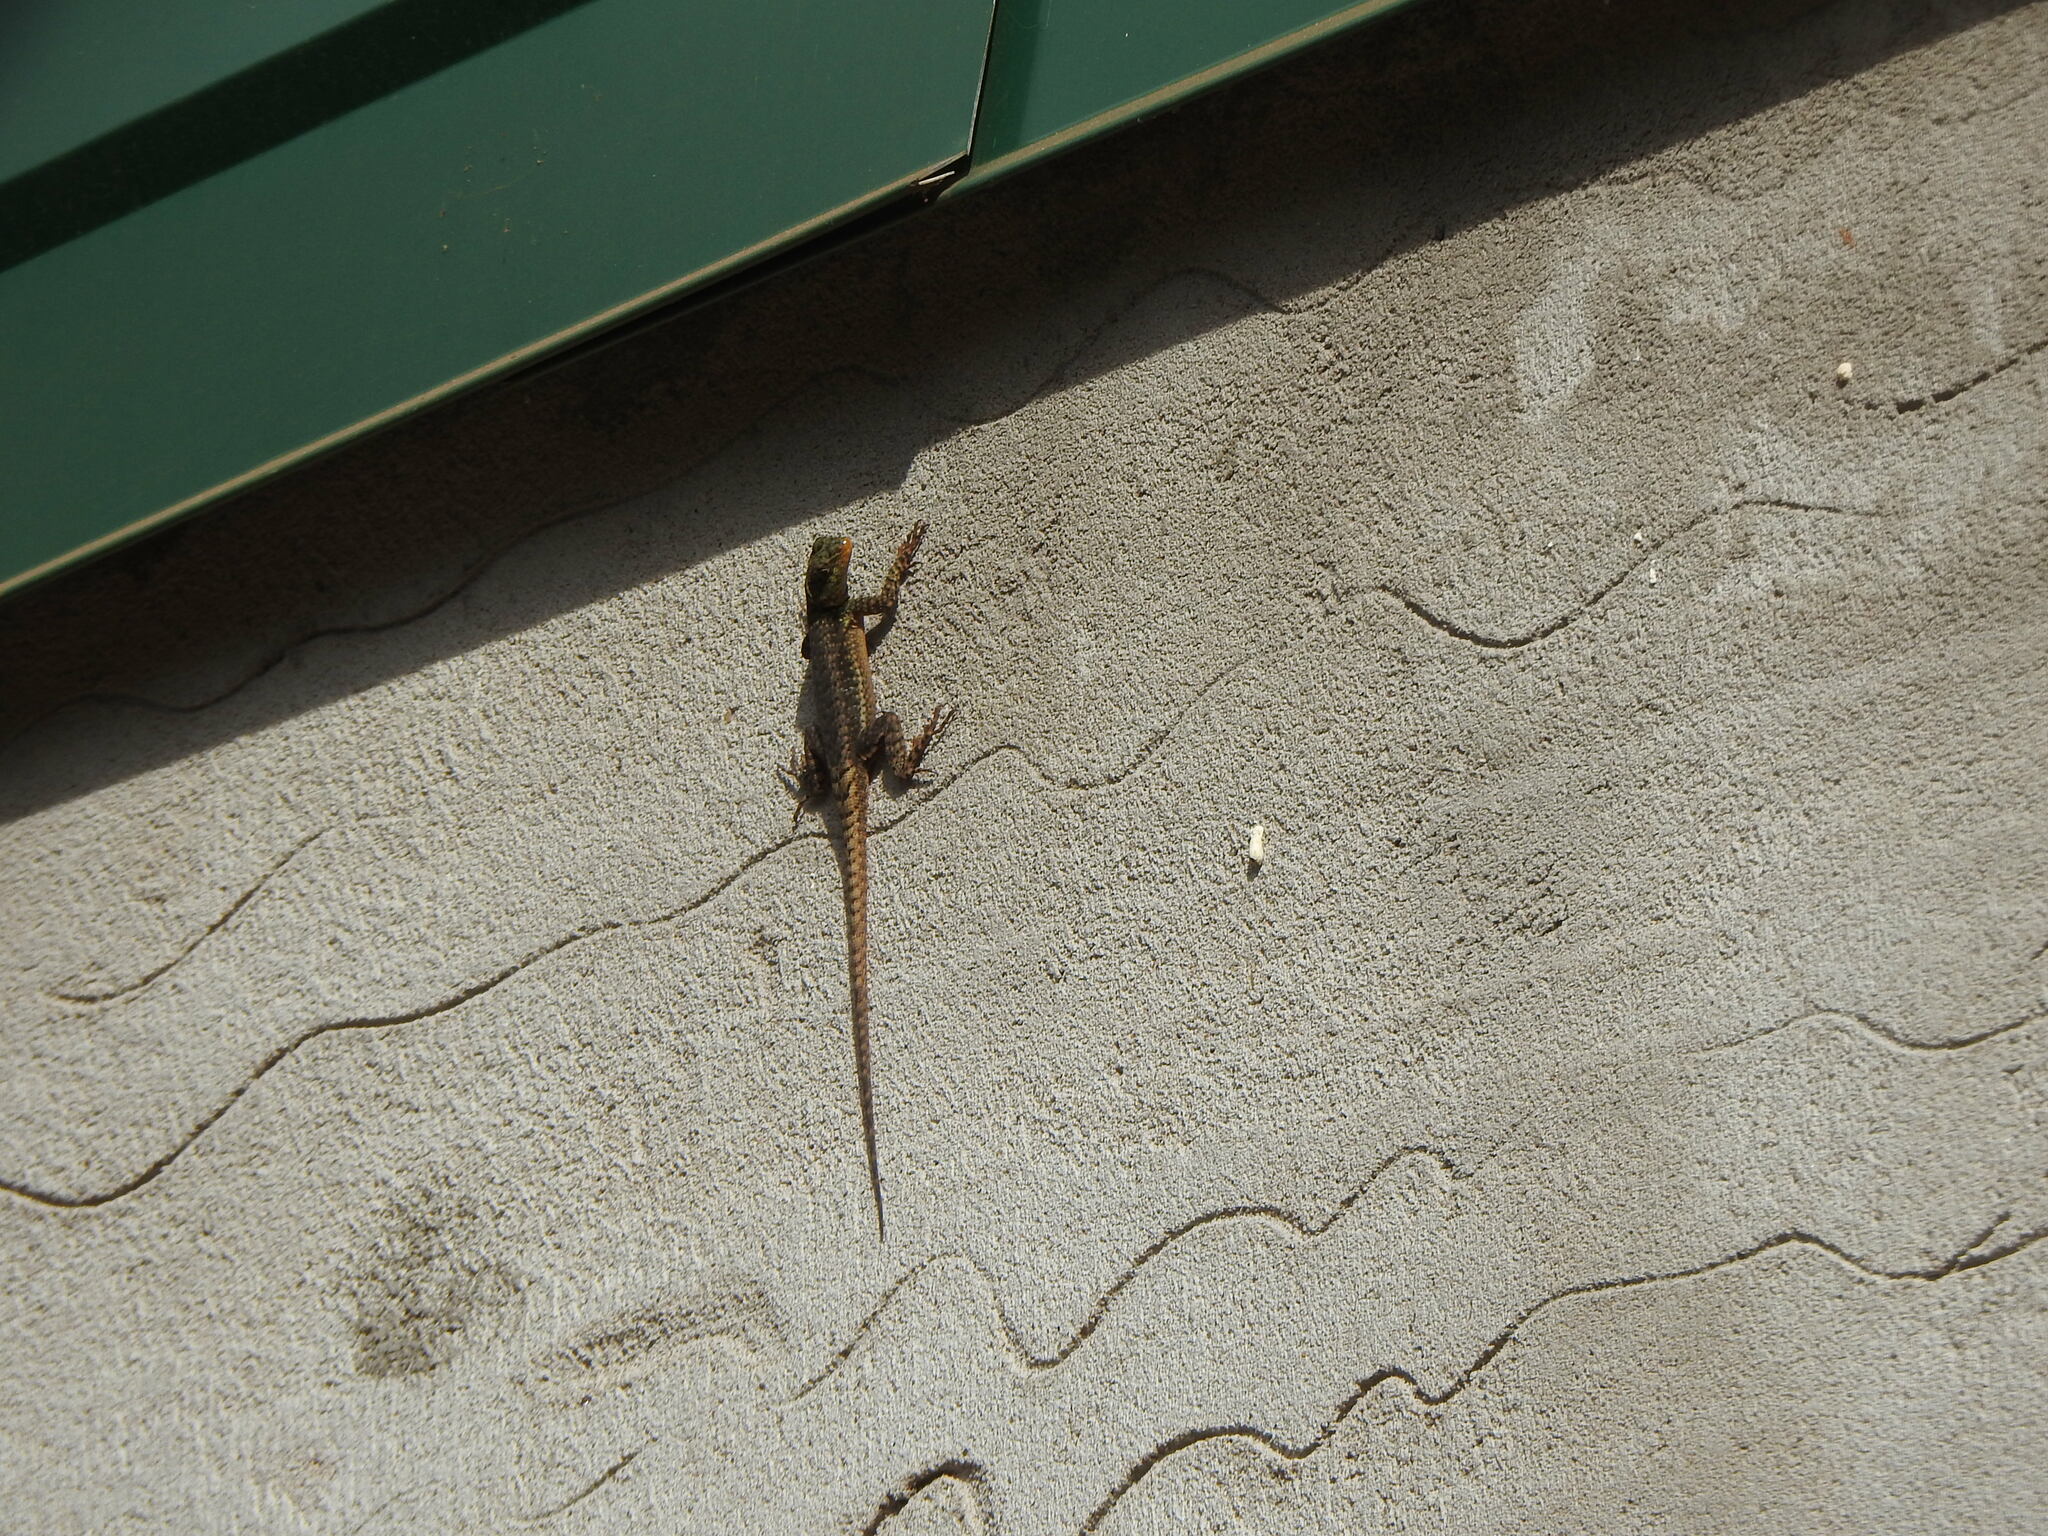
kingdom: Animalia
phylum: Chordata
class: Squamata
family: Tropiduridae
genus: Tropidurus
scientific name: Tropidurus catalanensis
